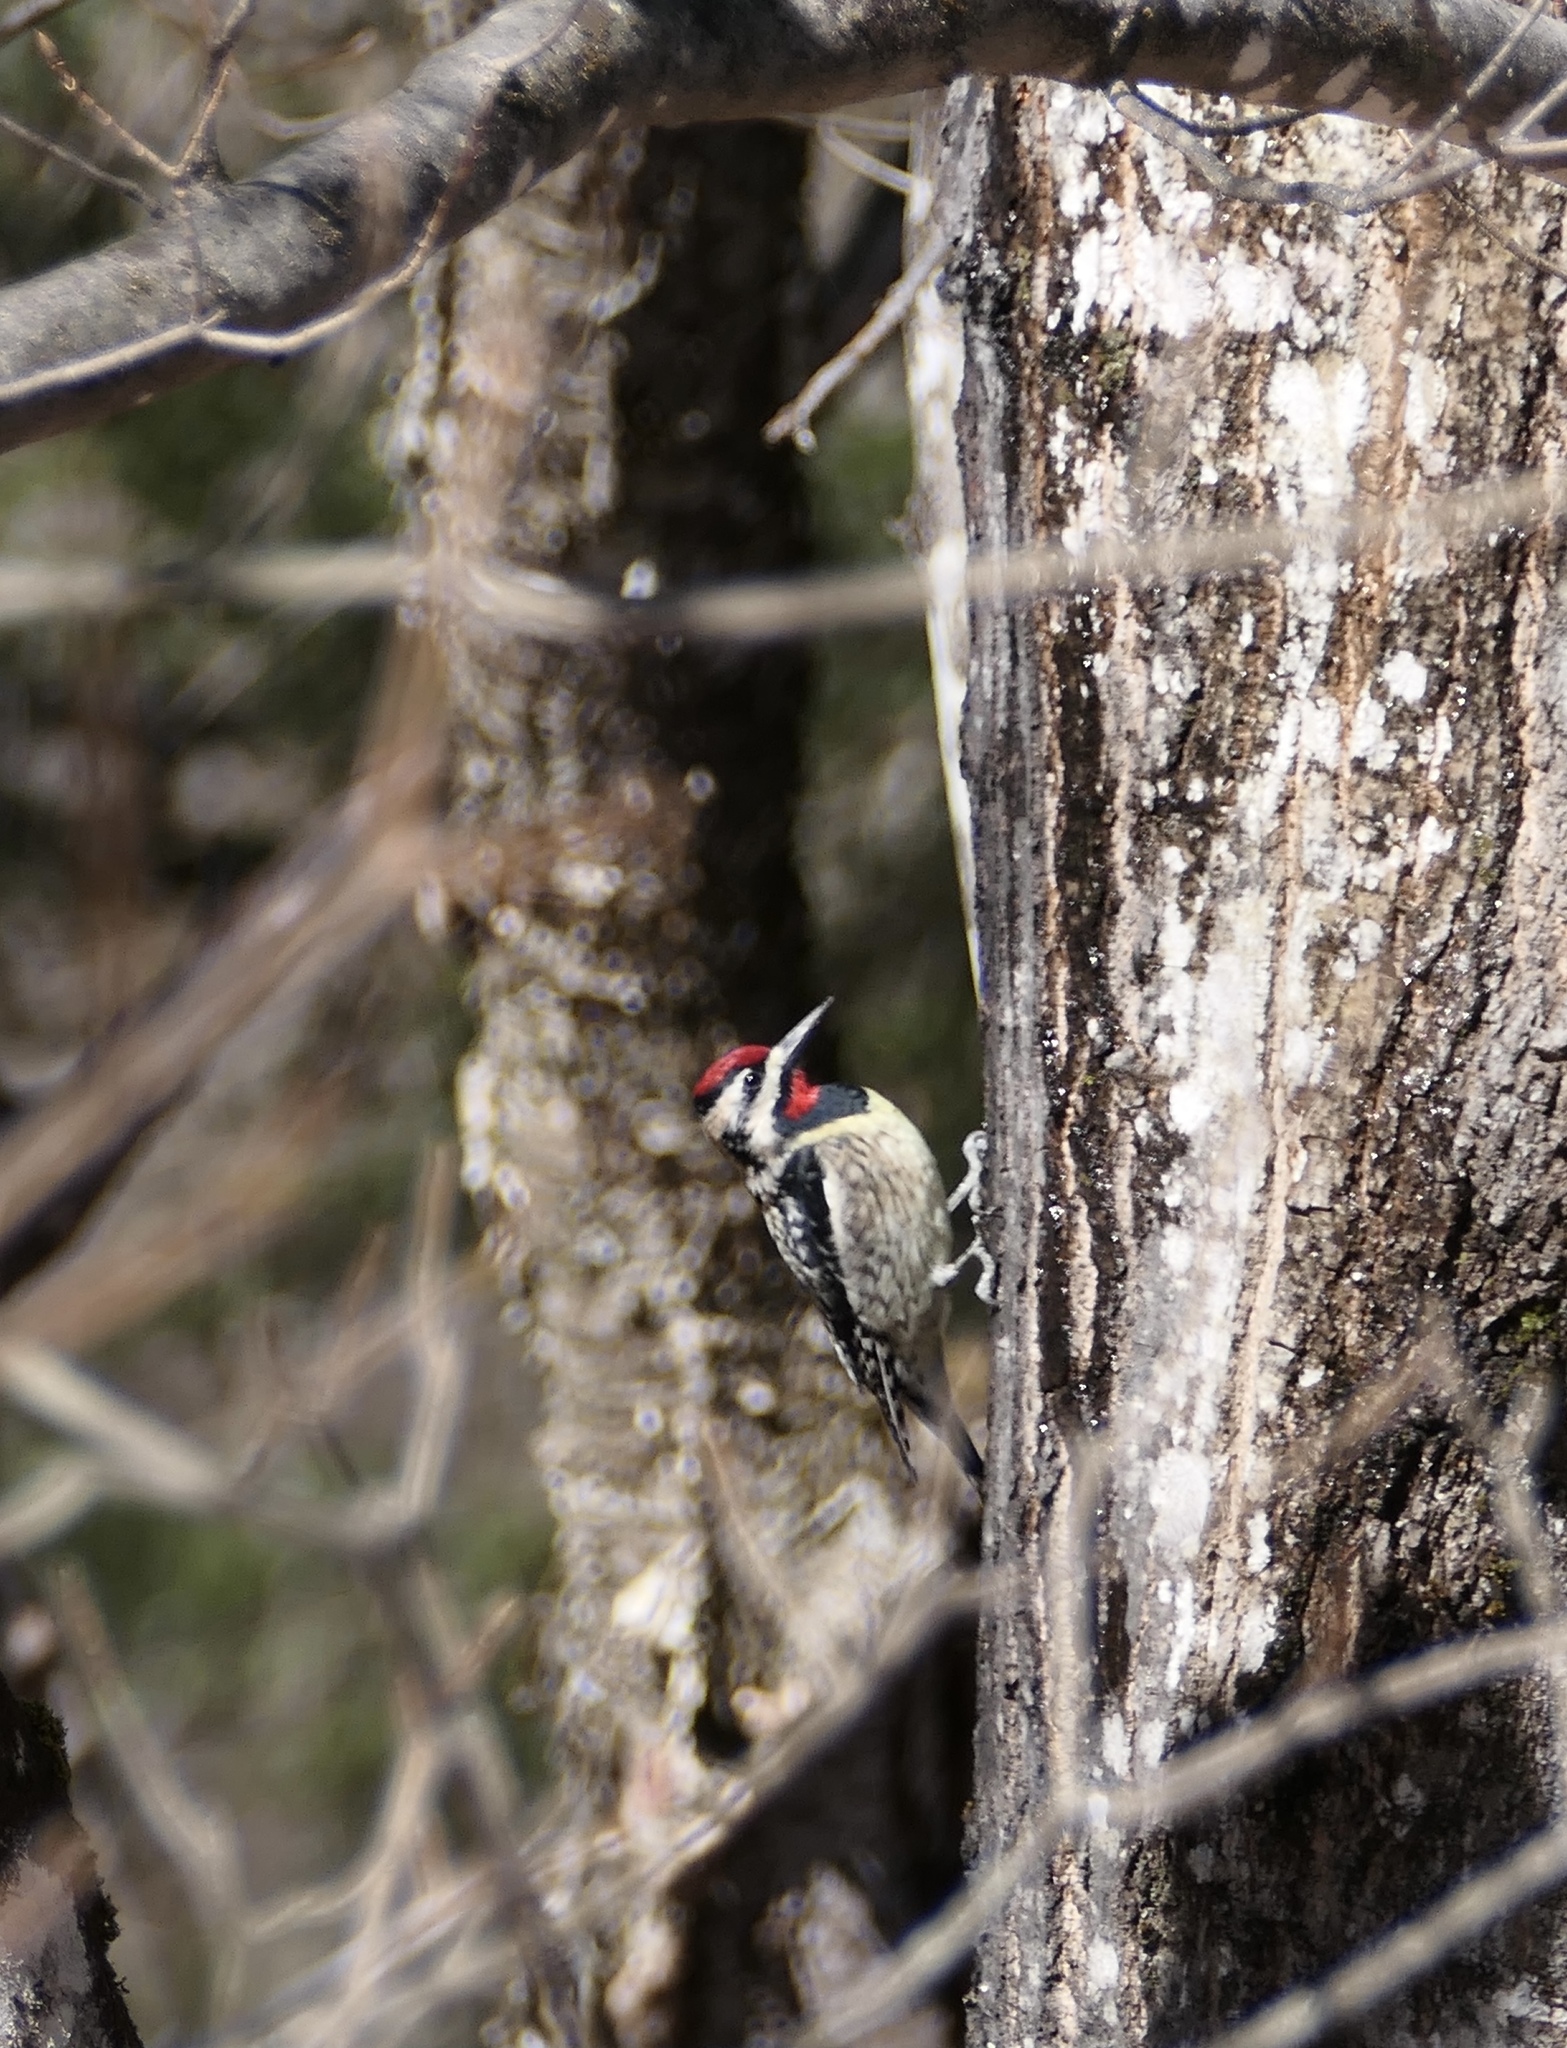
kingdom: Animalia
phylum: Chordata
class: Aves
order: Piciformes
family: Picidae
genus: Sphyrapicus
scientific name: Sphyrapicus varius
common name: Yellow-bellied sapsucker
